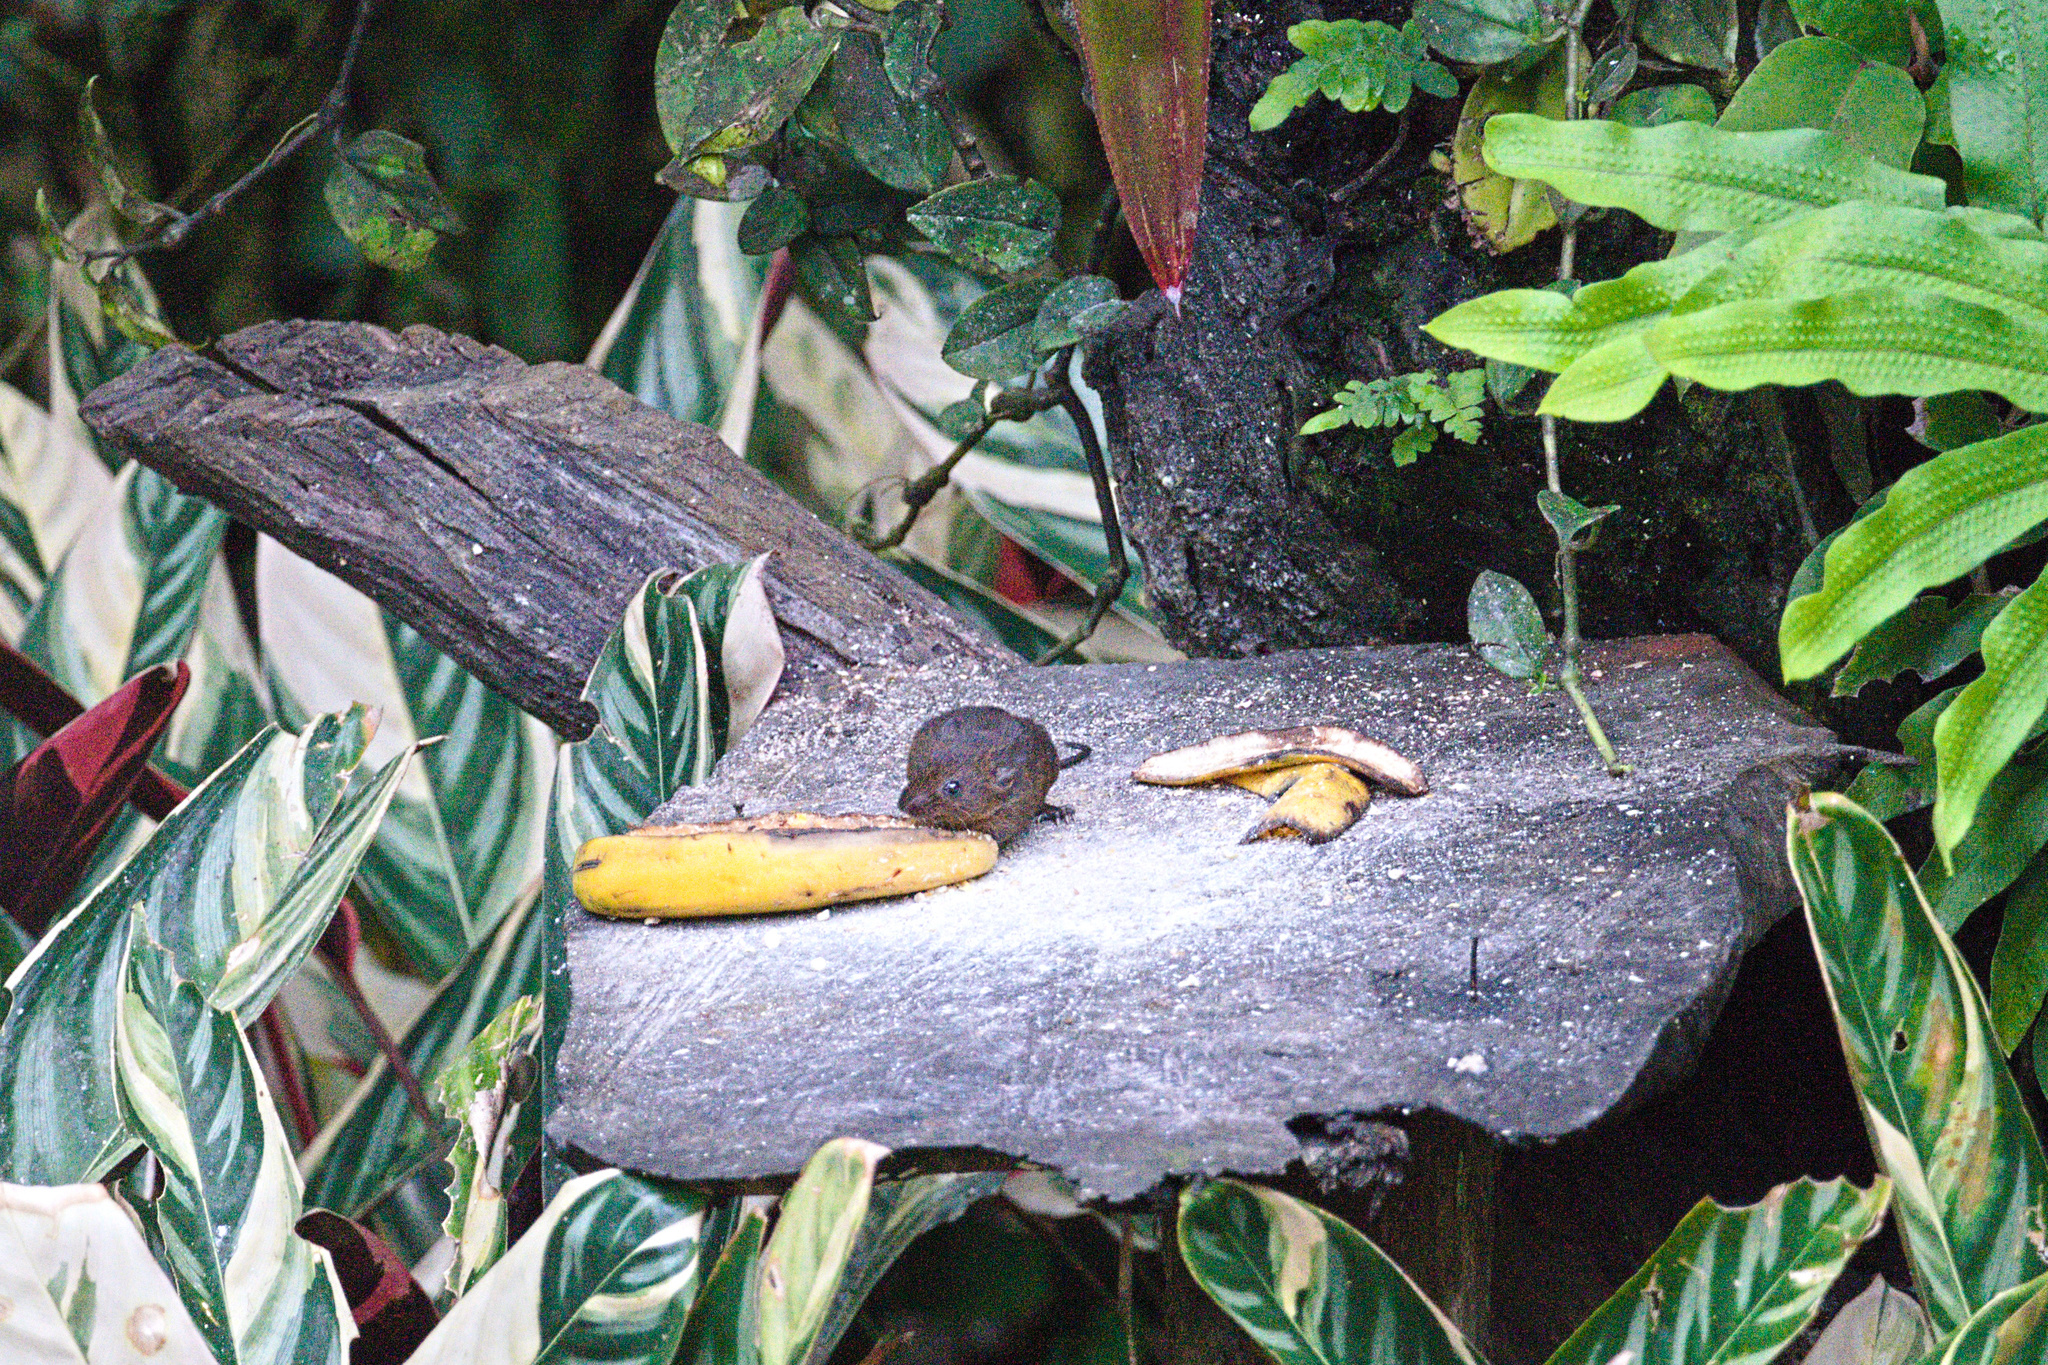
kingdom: Animalia
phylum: Chordata
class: Mammalia
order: Rodentia
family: Cricetidae
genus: Melanomys
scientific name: Melanomys caliginosus
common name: Dusky melanomys
